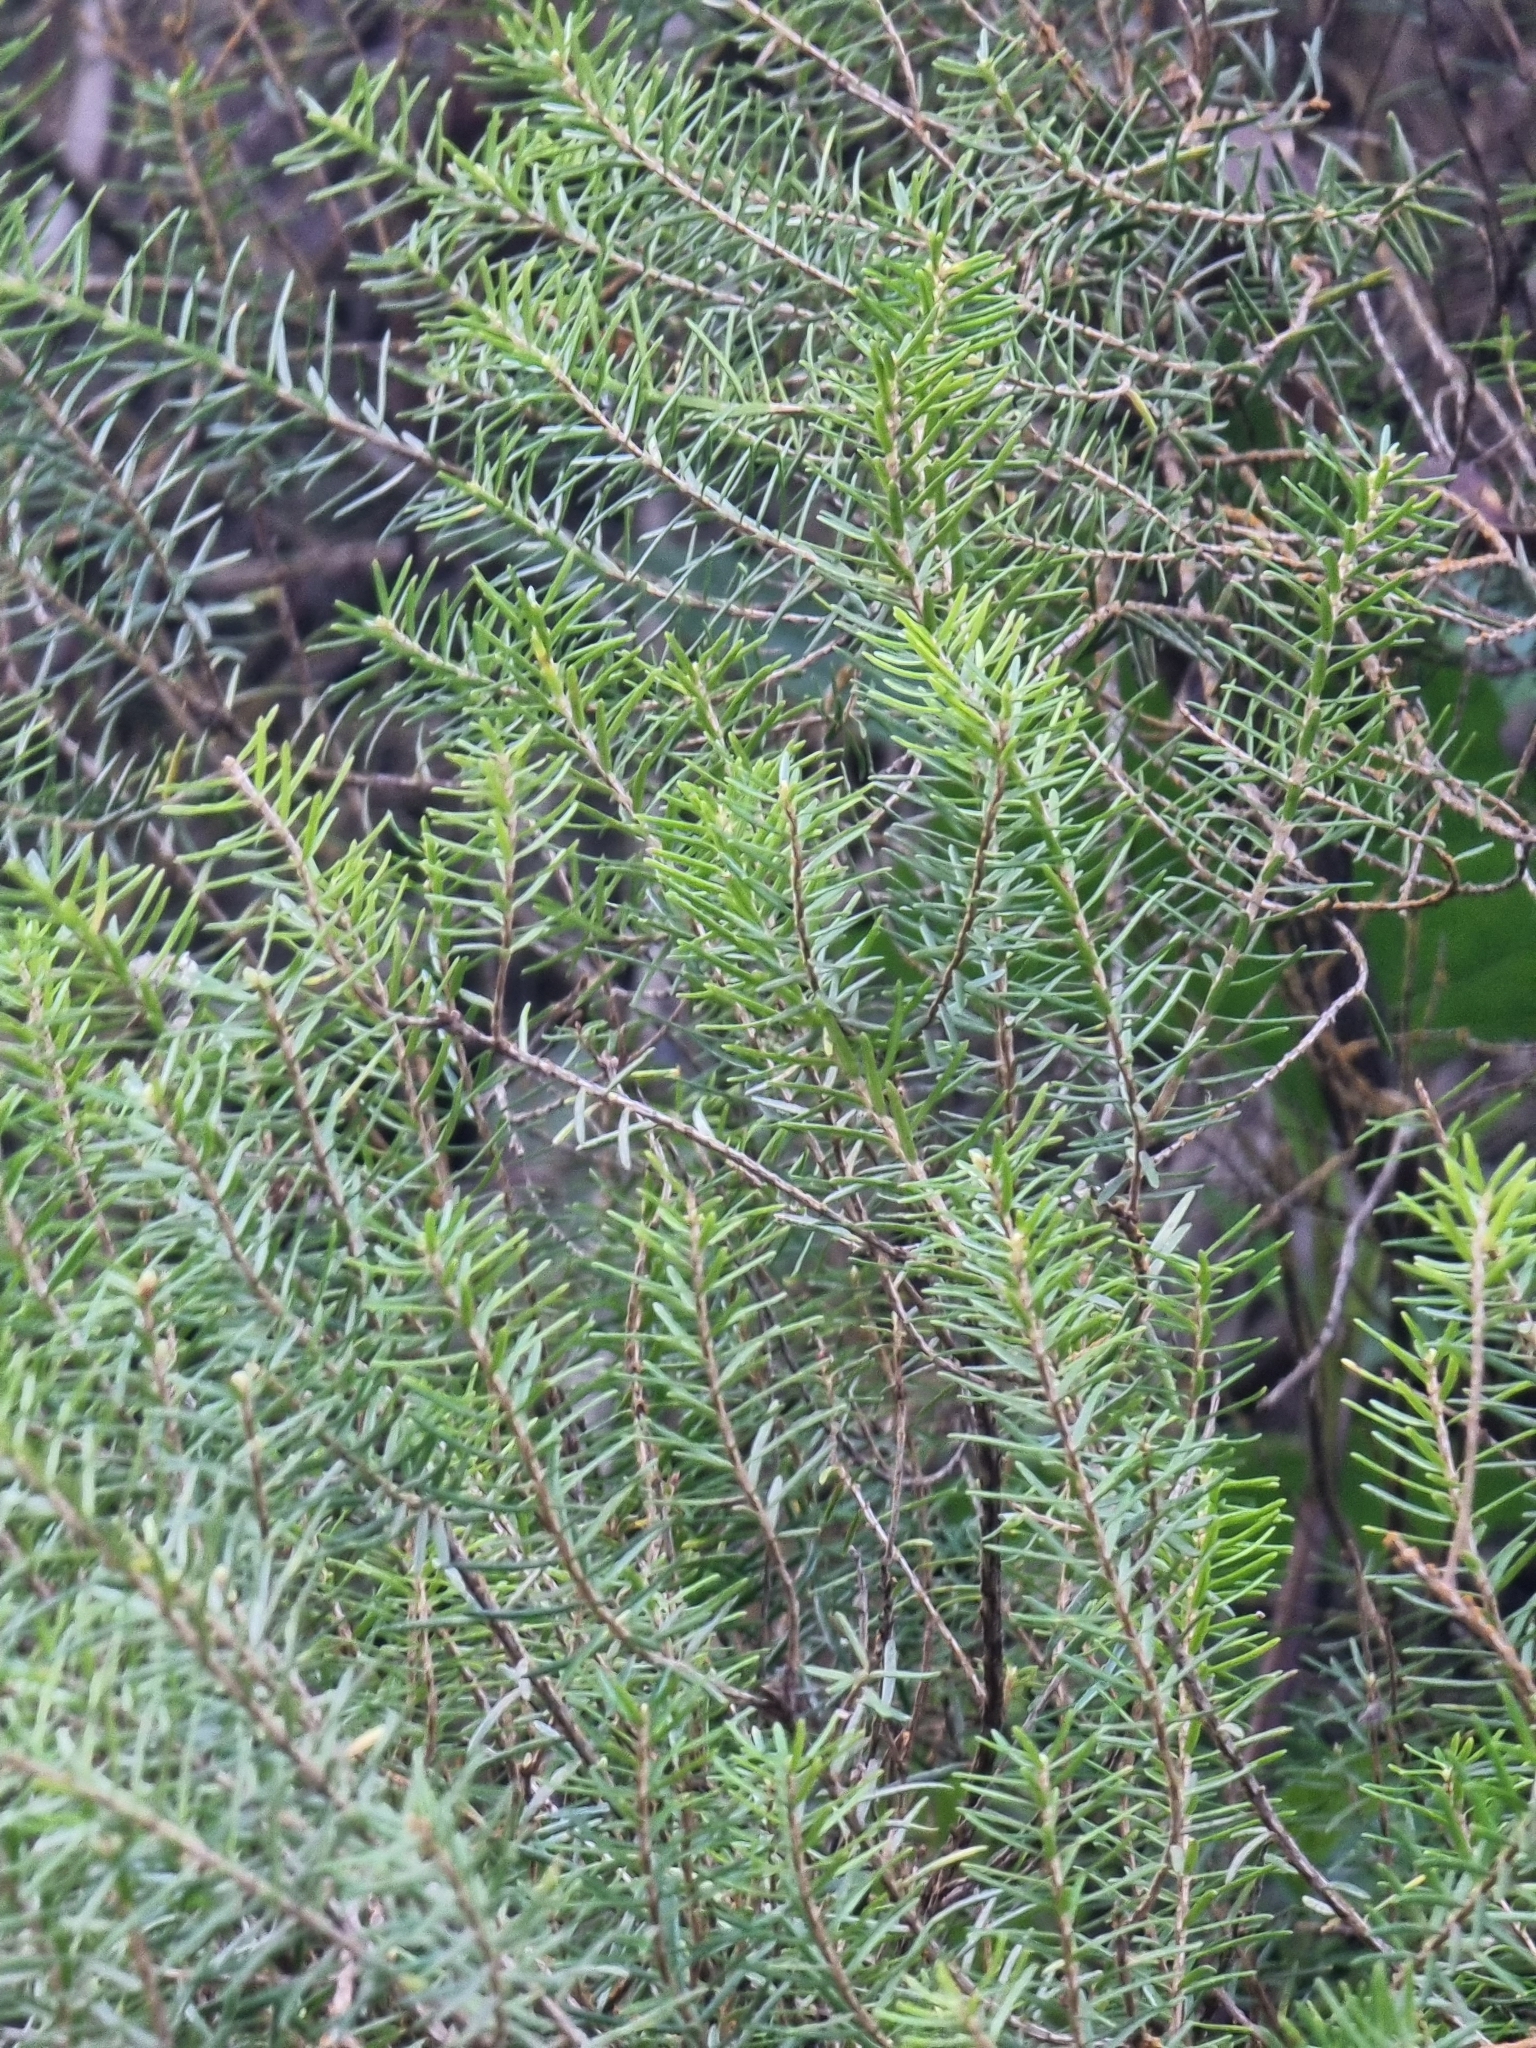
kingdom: Plantae
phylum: Tracheophyta
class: Magnoliopsida
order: Ericales
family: Ericaceae
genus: Erica
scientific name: Erica platycodon
